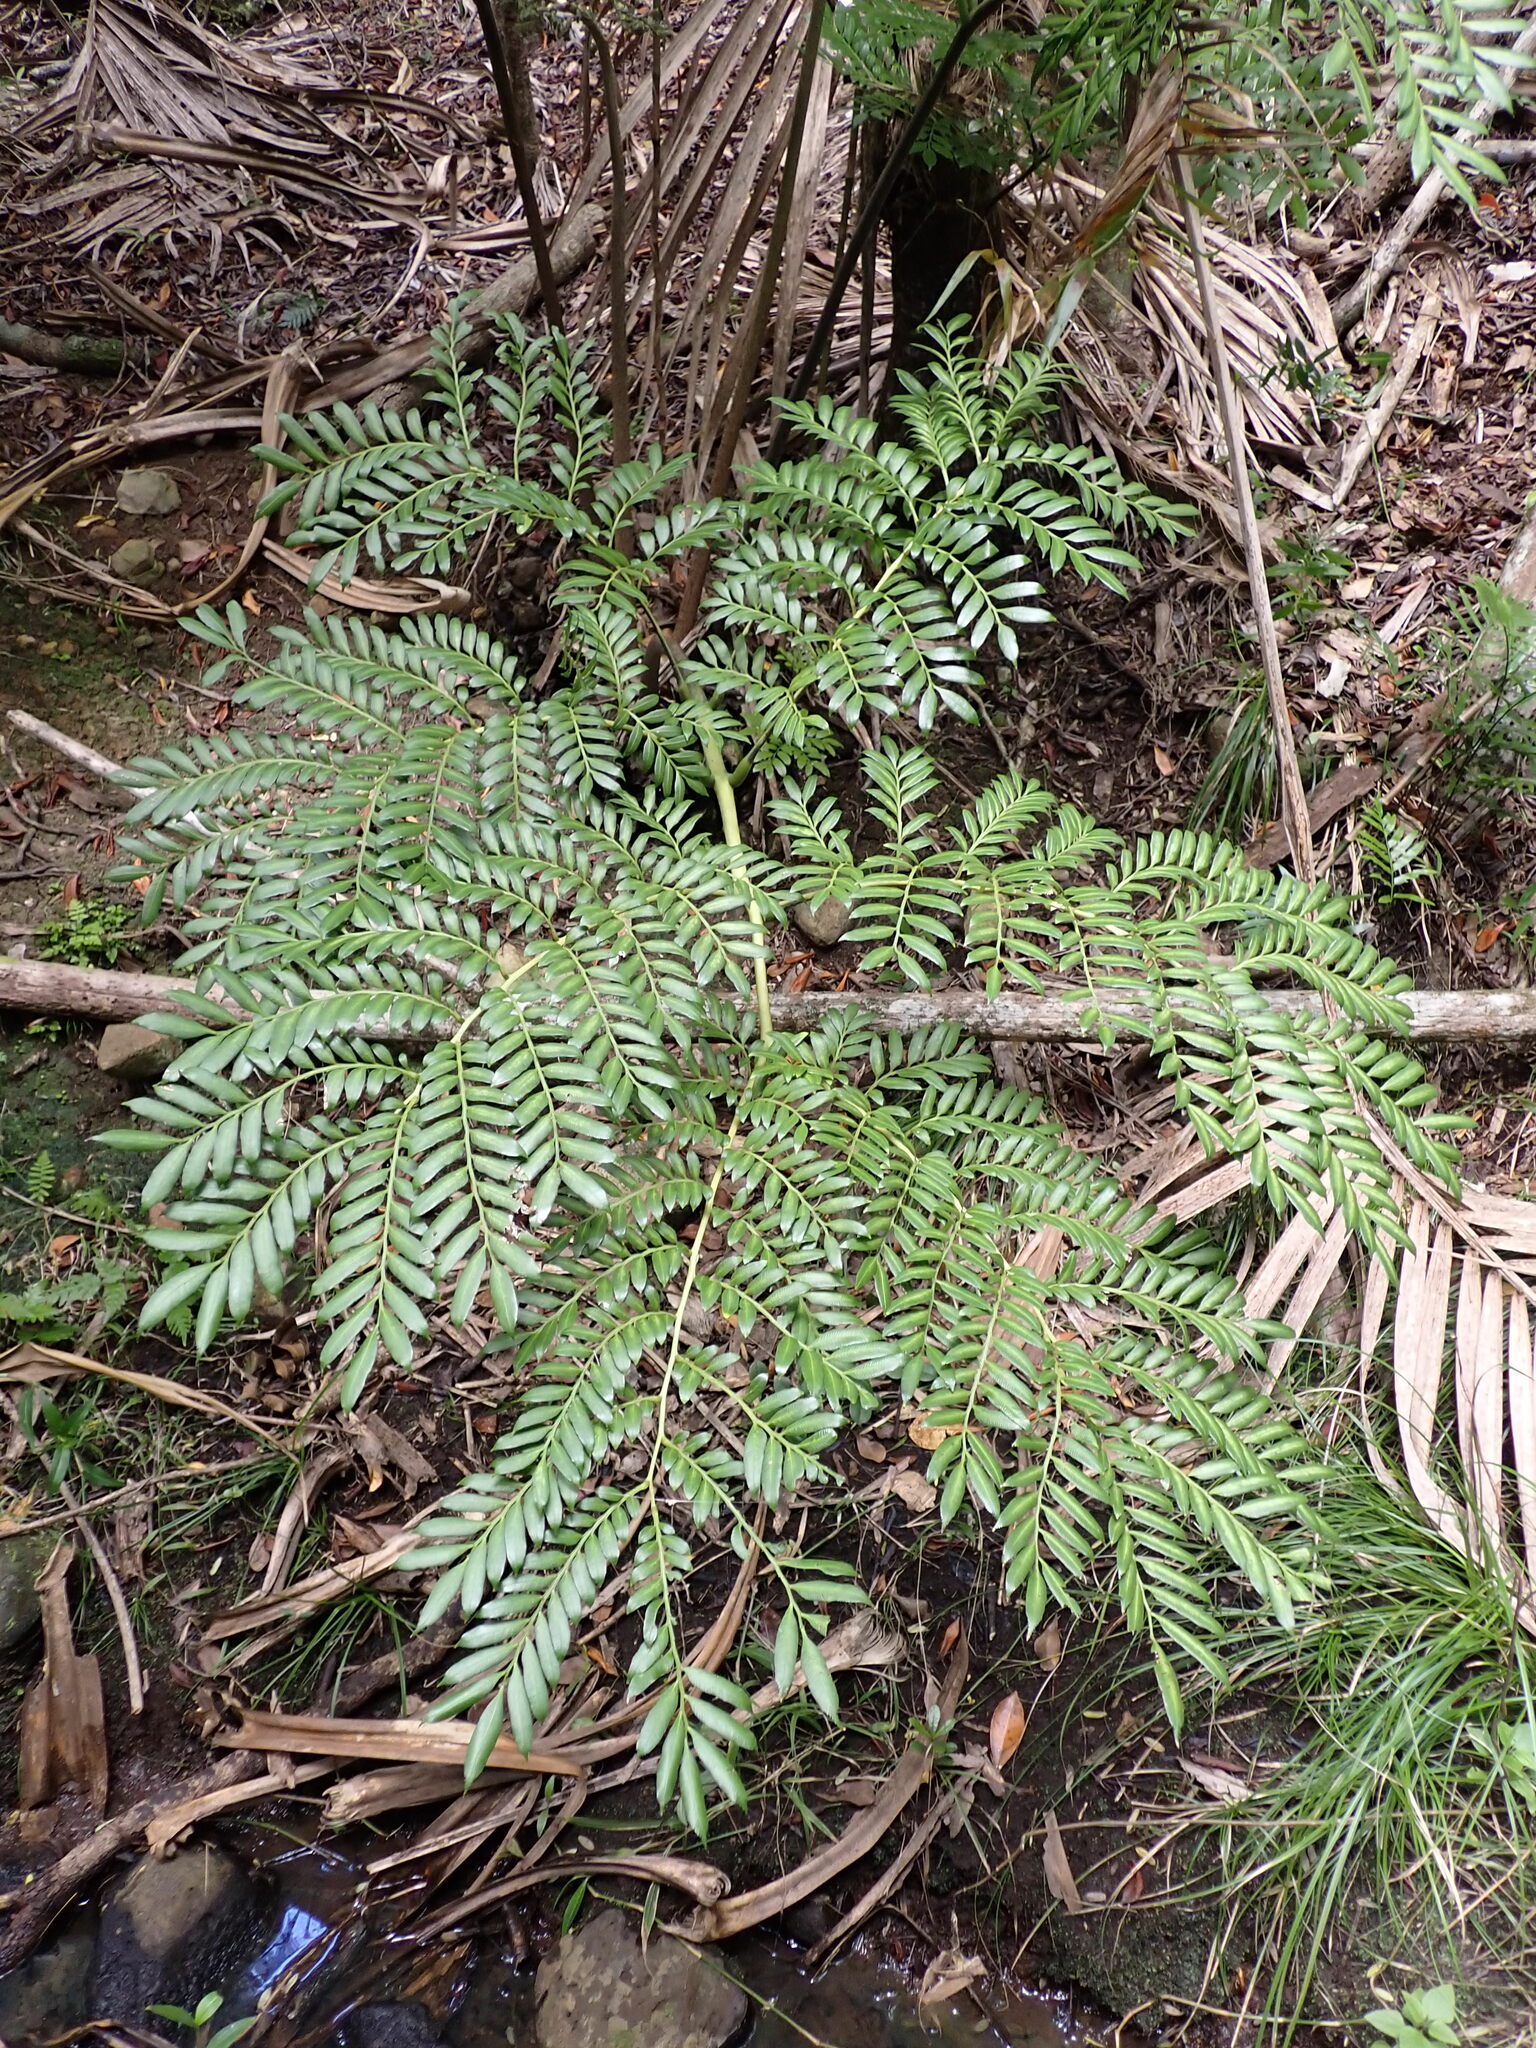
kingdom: Plantae
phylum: Tracheophyta
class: Polypodiopsida
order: Marattiales
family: Marattiaceae
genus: Ptisana
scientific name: Ptisana howeana
